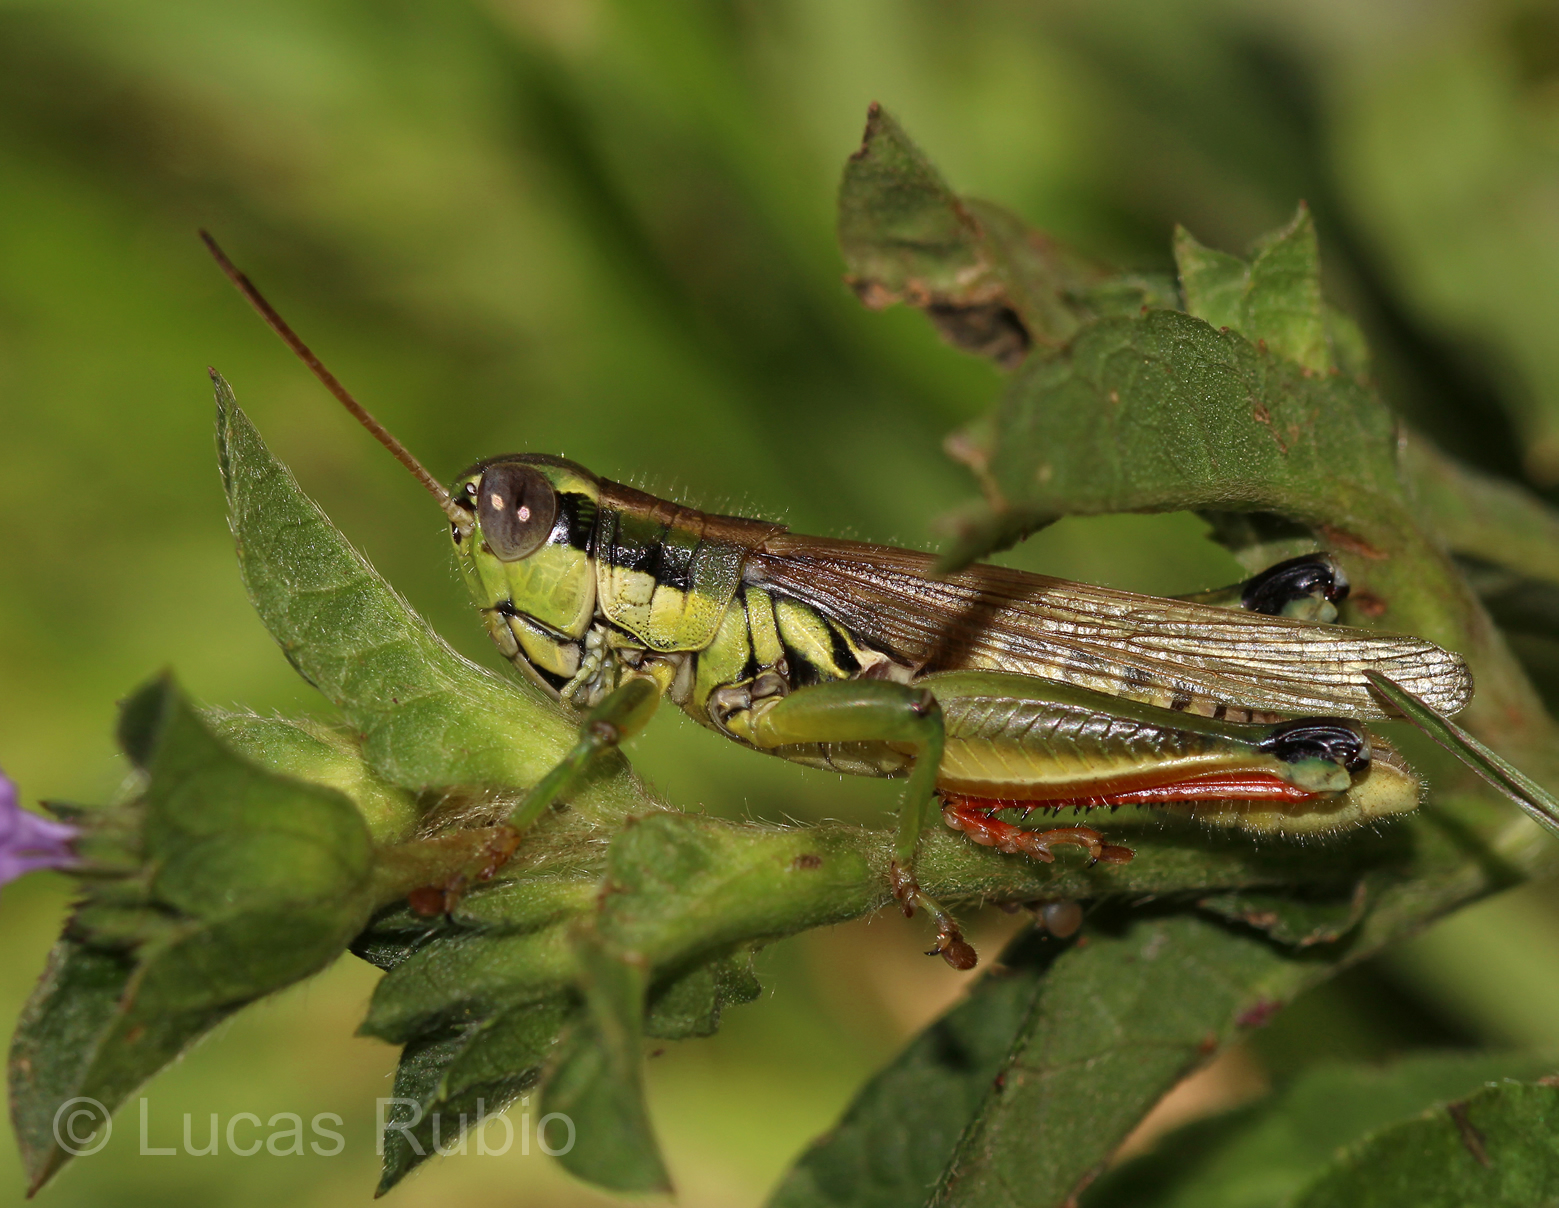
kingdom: Animalia
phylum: Arthropoda
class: Insecta
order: Orthoptera
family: Acrididae
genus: Leiotettix
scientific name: Leiotettix pulcher
